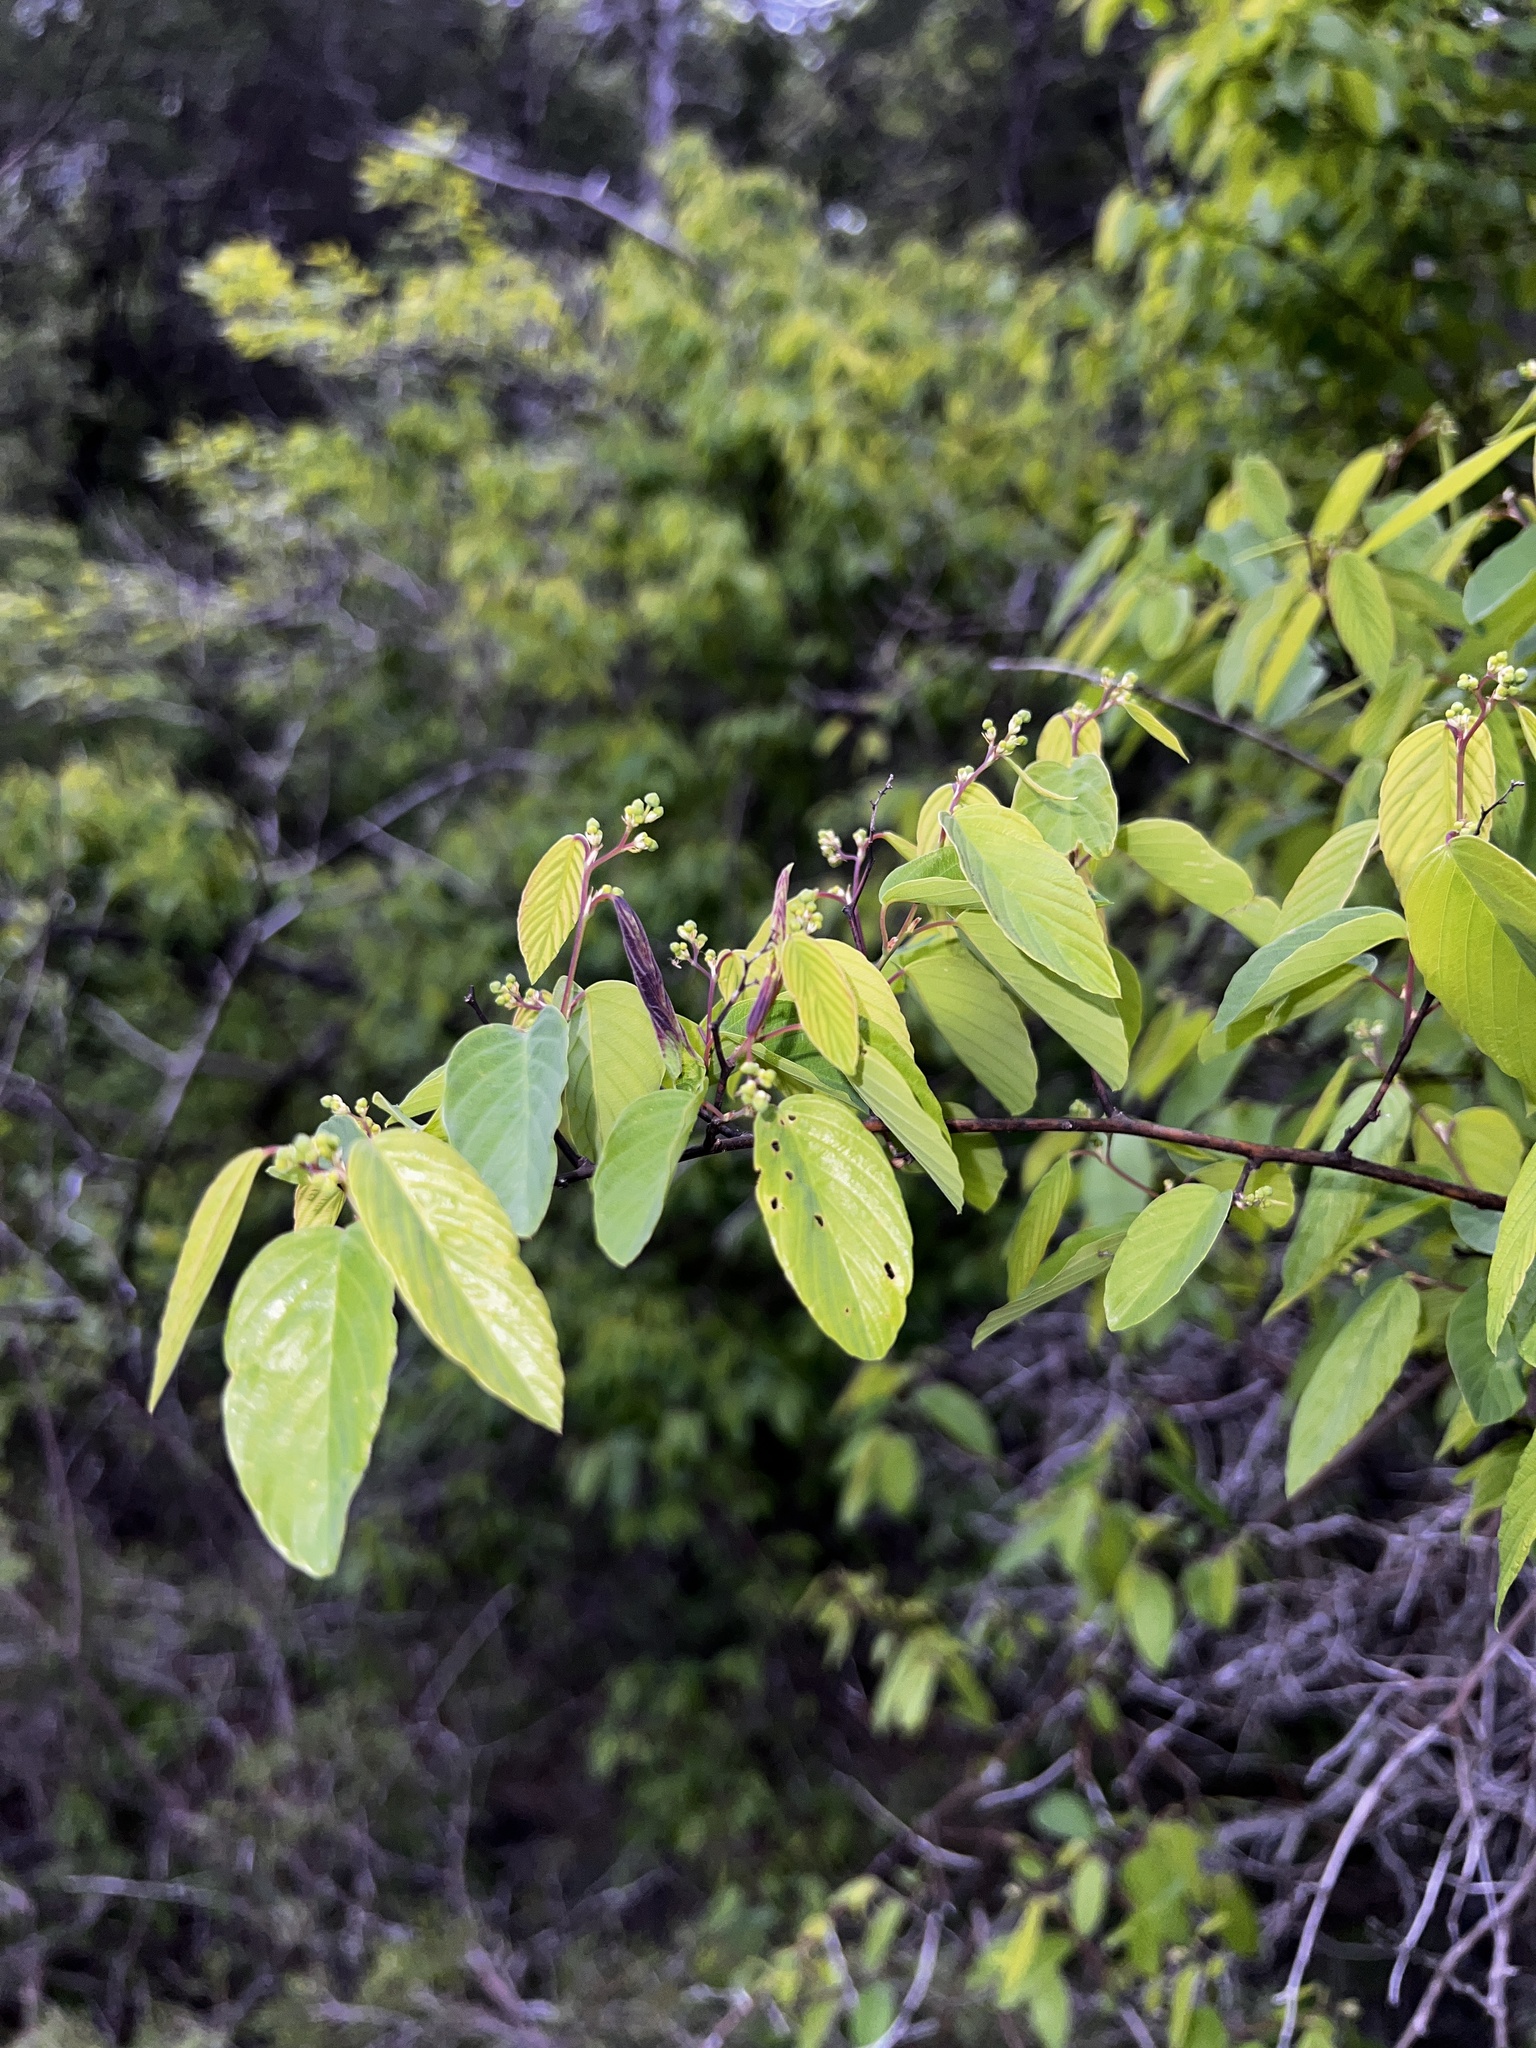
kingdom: Plantae
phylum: Tracheophyta
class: Magnoliopsida
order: Rosales
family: Rhamnaceae
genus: Berchemia
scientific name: Berchemia scandens
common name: Supplejack
